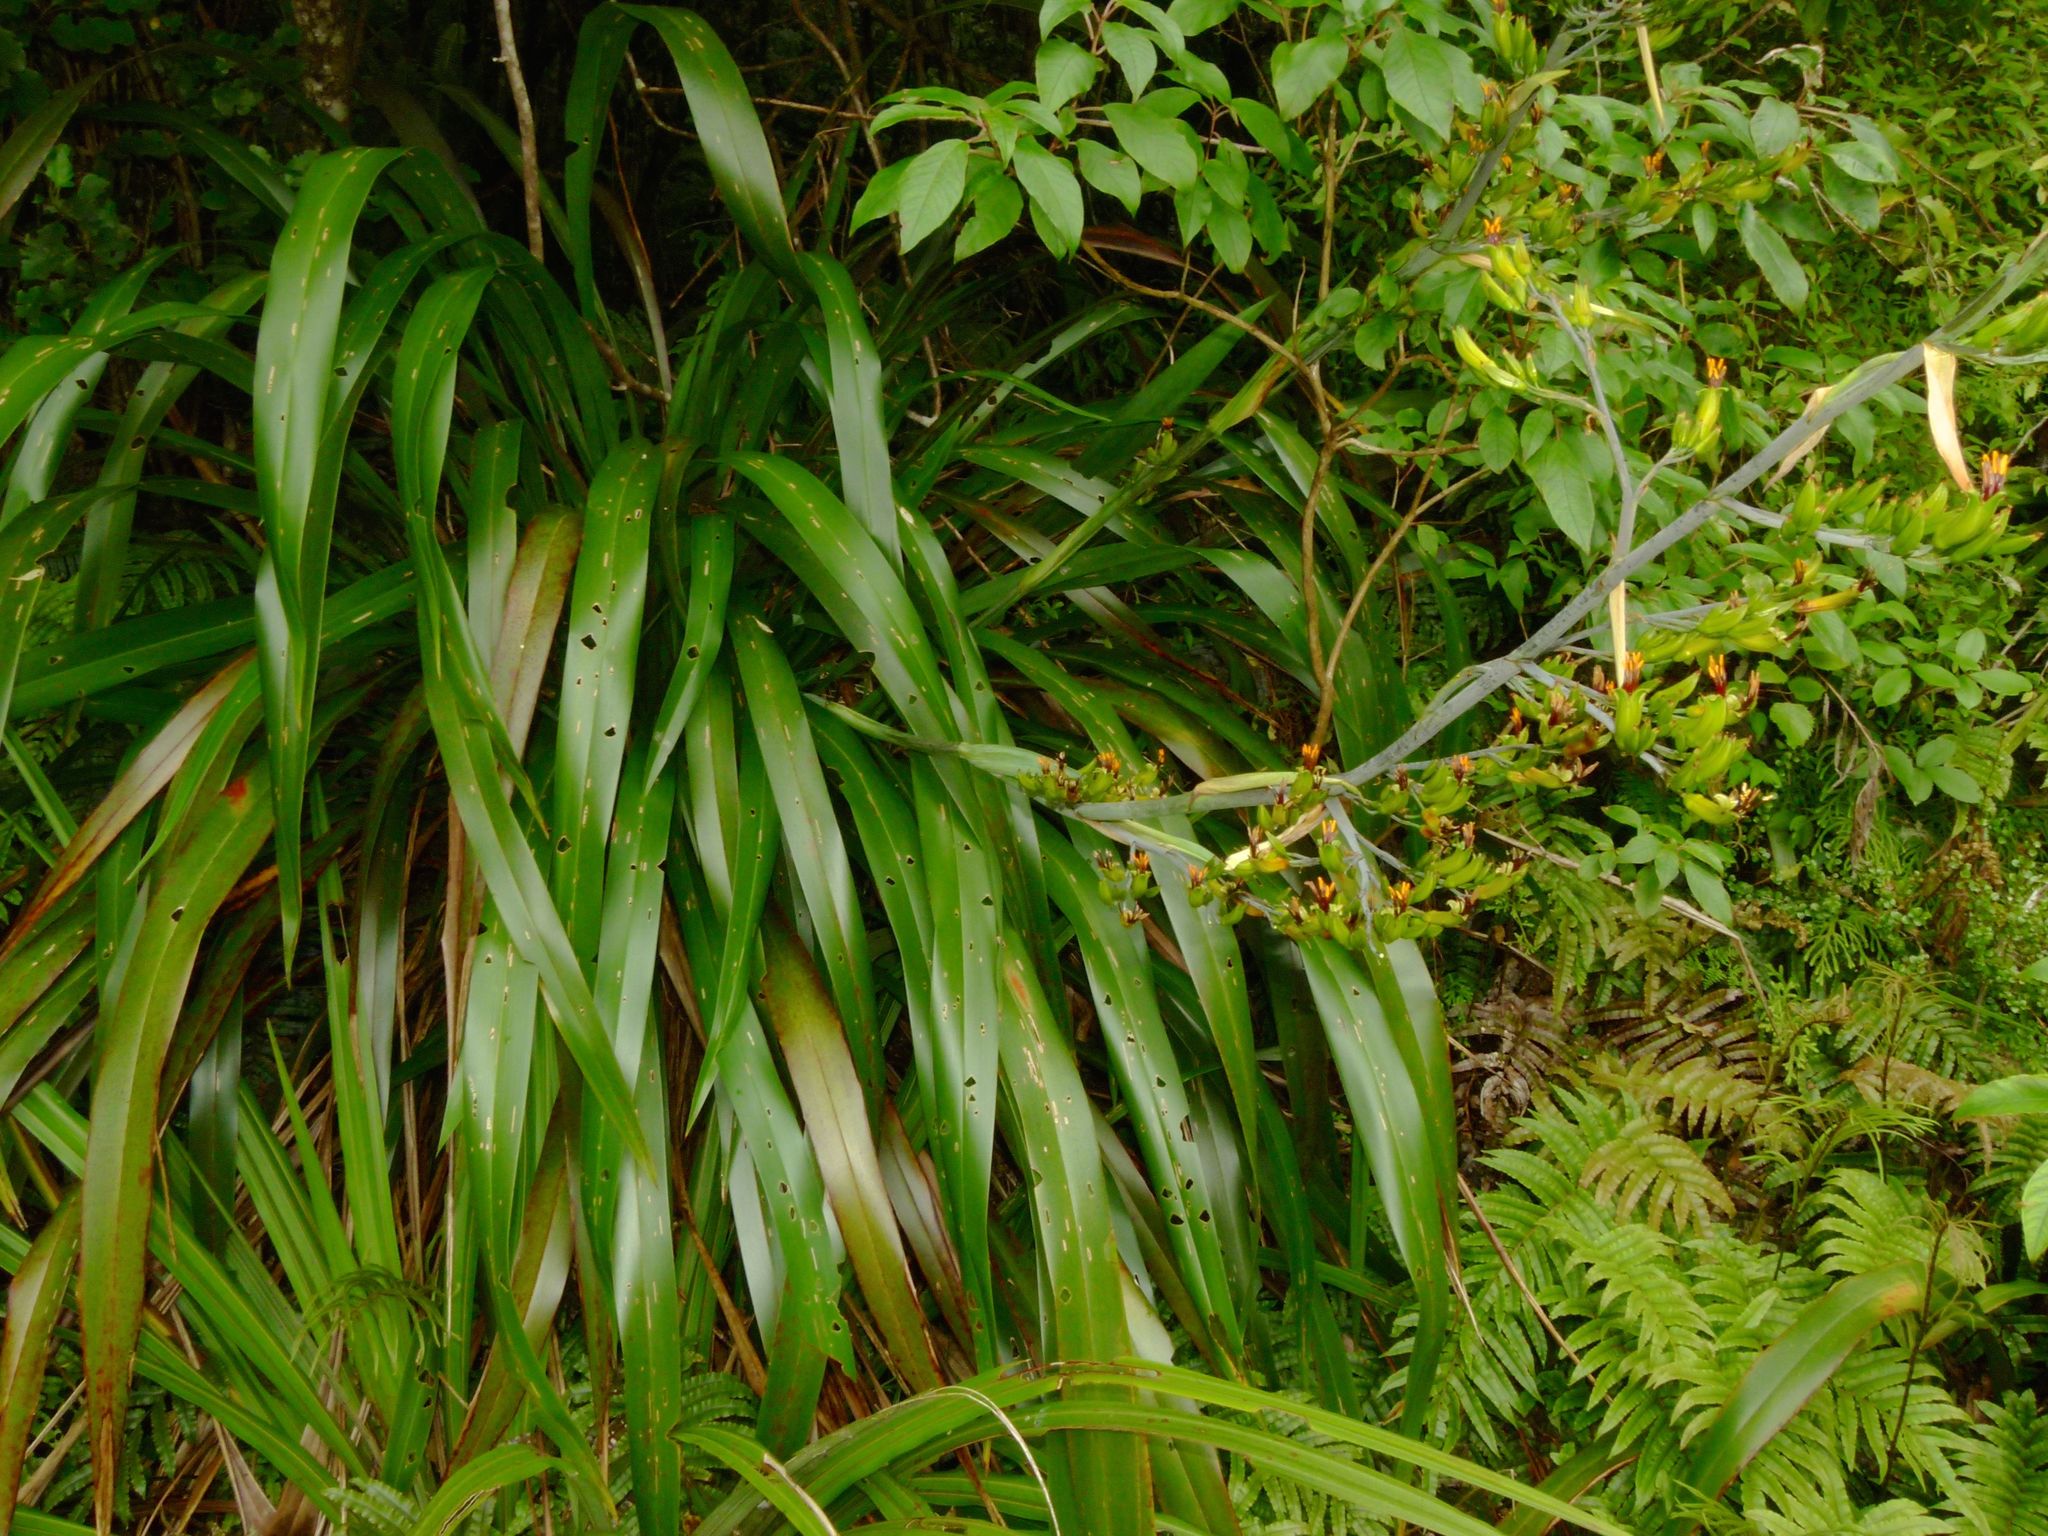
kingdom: Plantae
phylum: Tracheophyta
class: Liliopsida
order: Asparagales
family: Asphodelaceae
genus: Phormium
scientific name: Phormium colensoi
